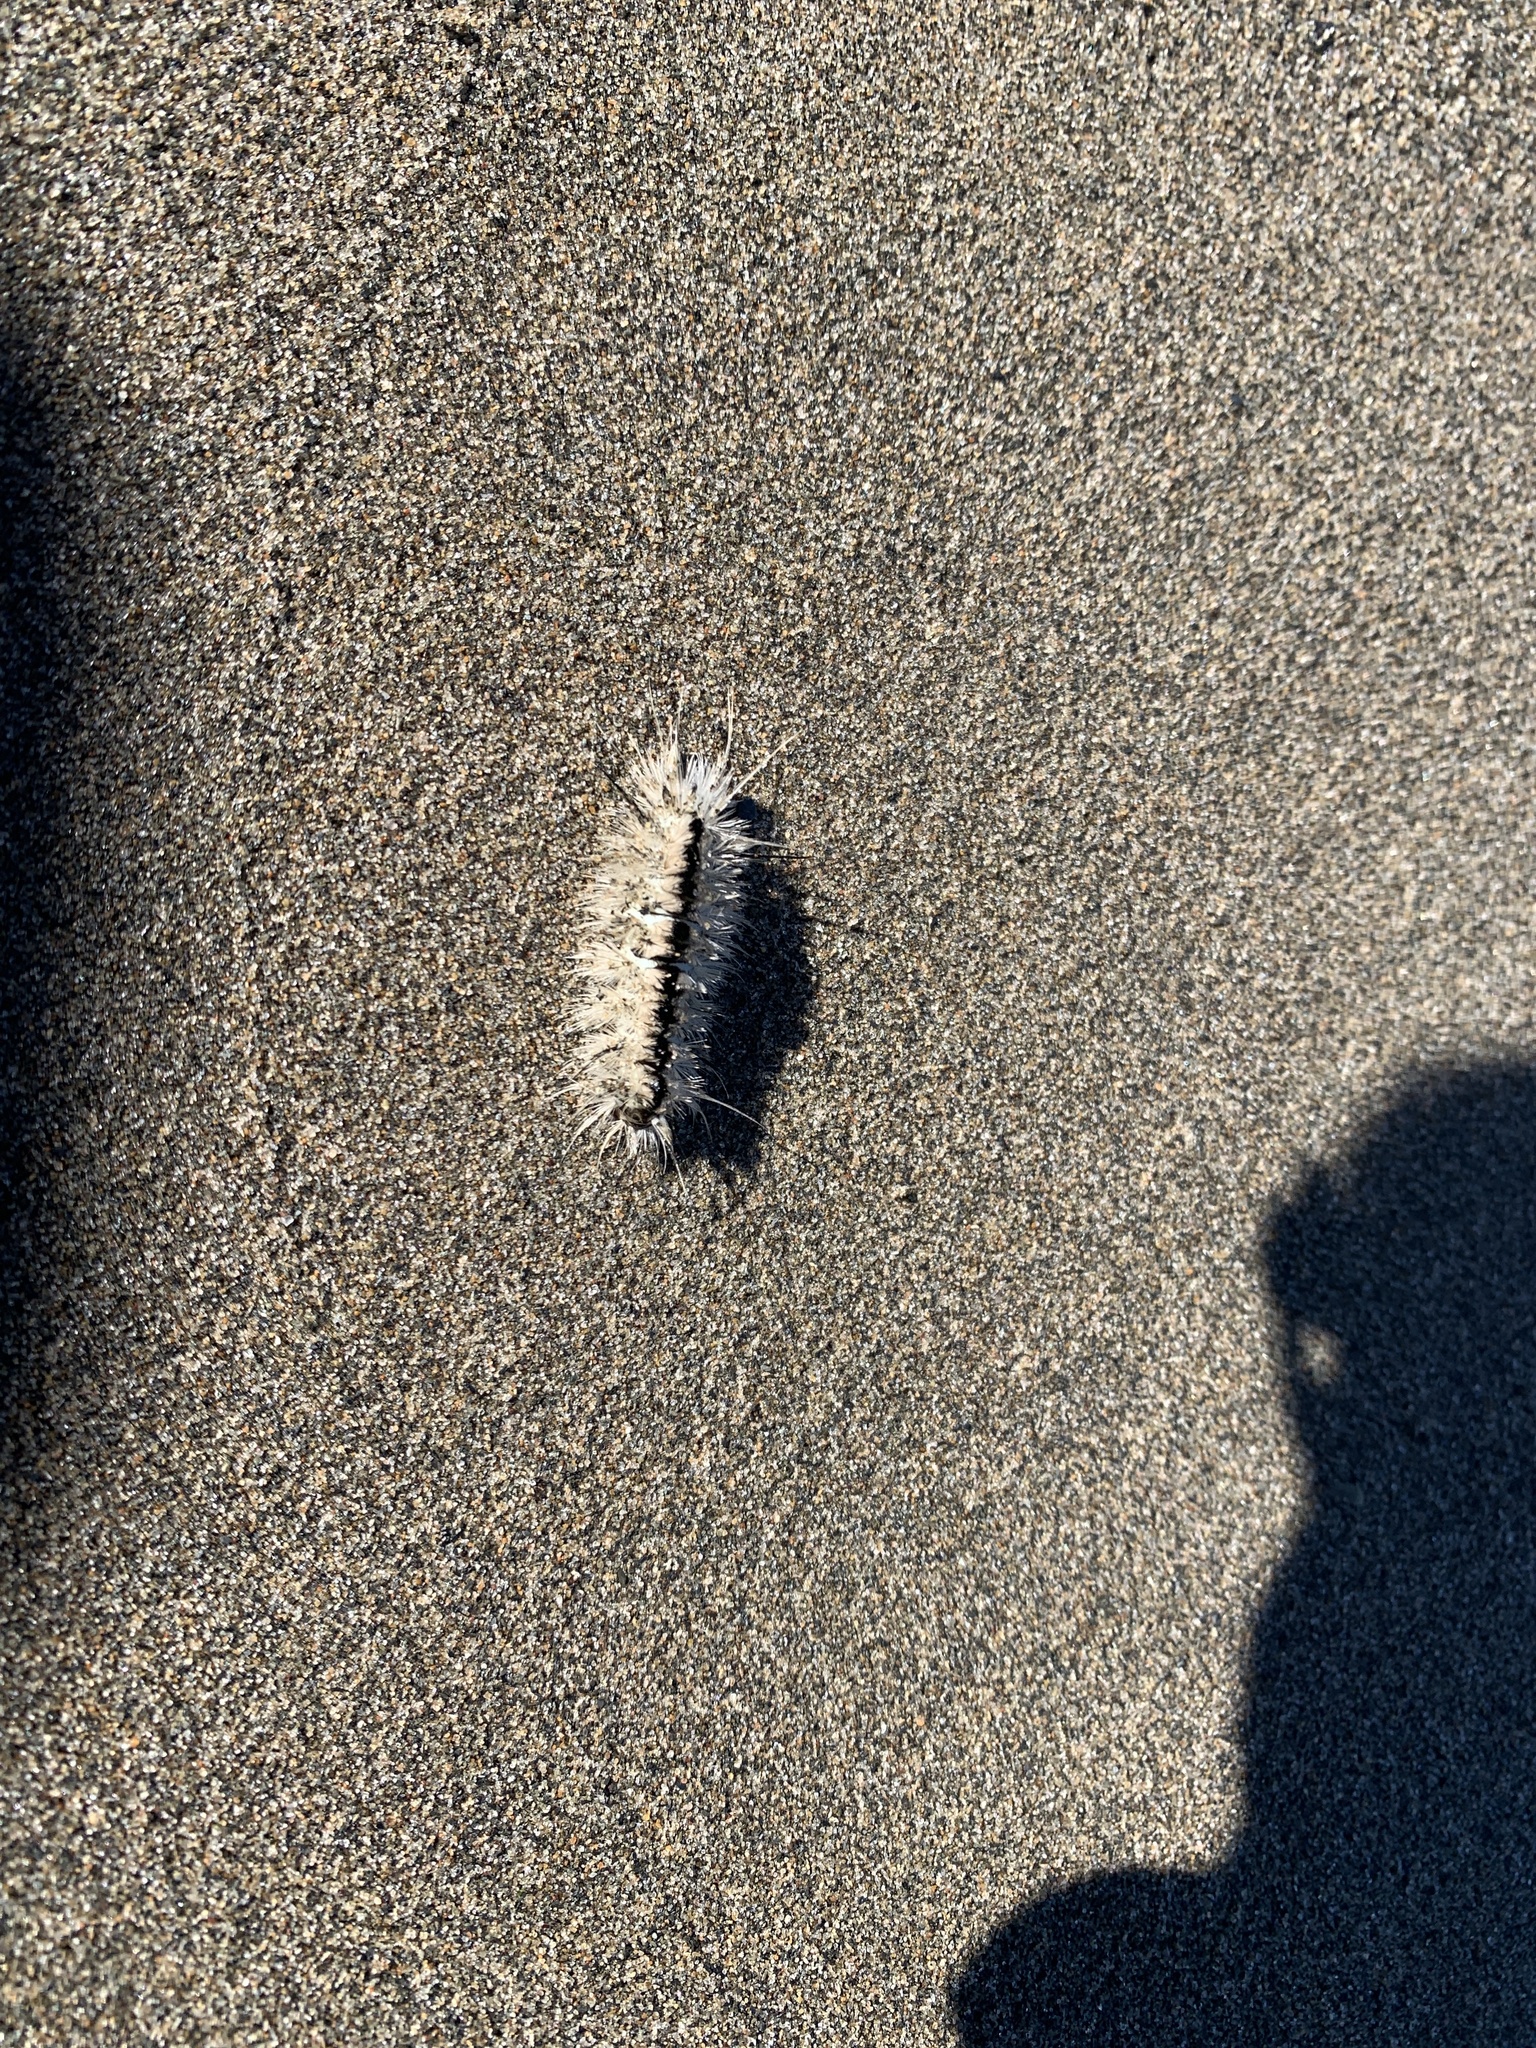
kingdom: Animalia
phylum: Arthropoda
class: Insecta
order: Lepidoptera
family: Erebidae
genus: Lophocampa
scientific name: Lophocampa caryae
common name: Hickory tussock moth
